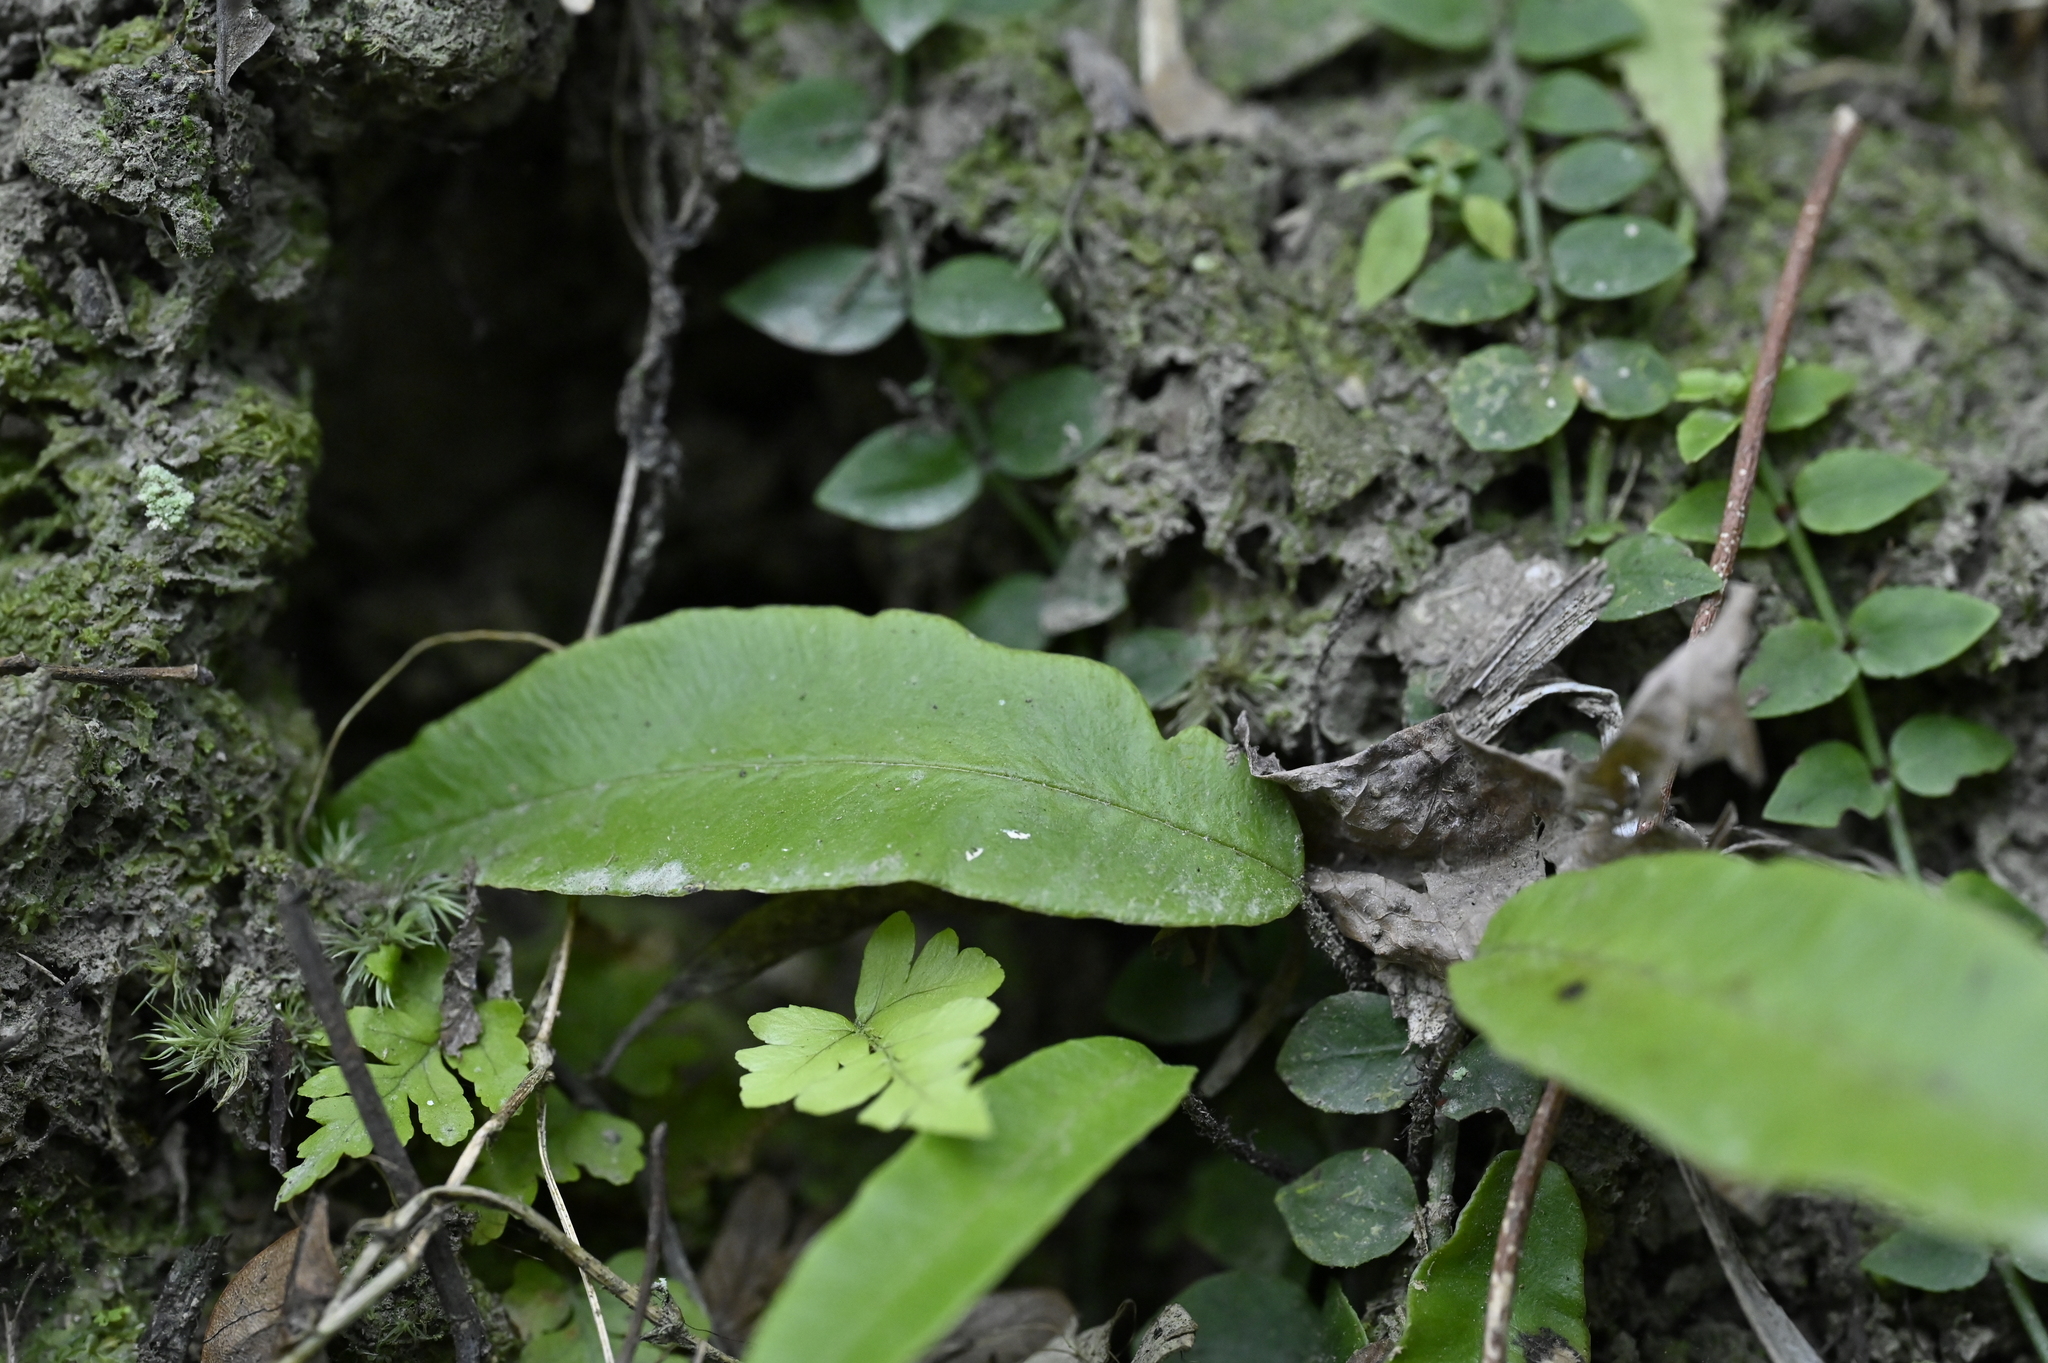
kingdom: Plantae
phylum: Tracheophyta
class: Polypodiopsida
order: Polypodiales
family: Athyriaceae
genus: Deparia
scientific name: Deparia lancea
